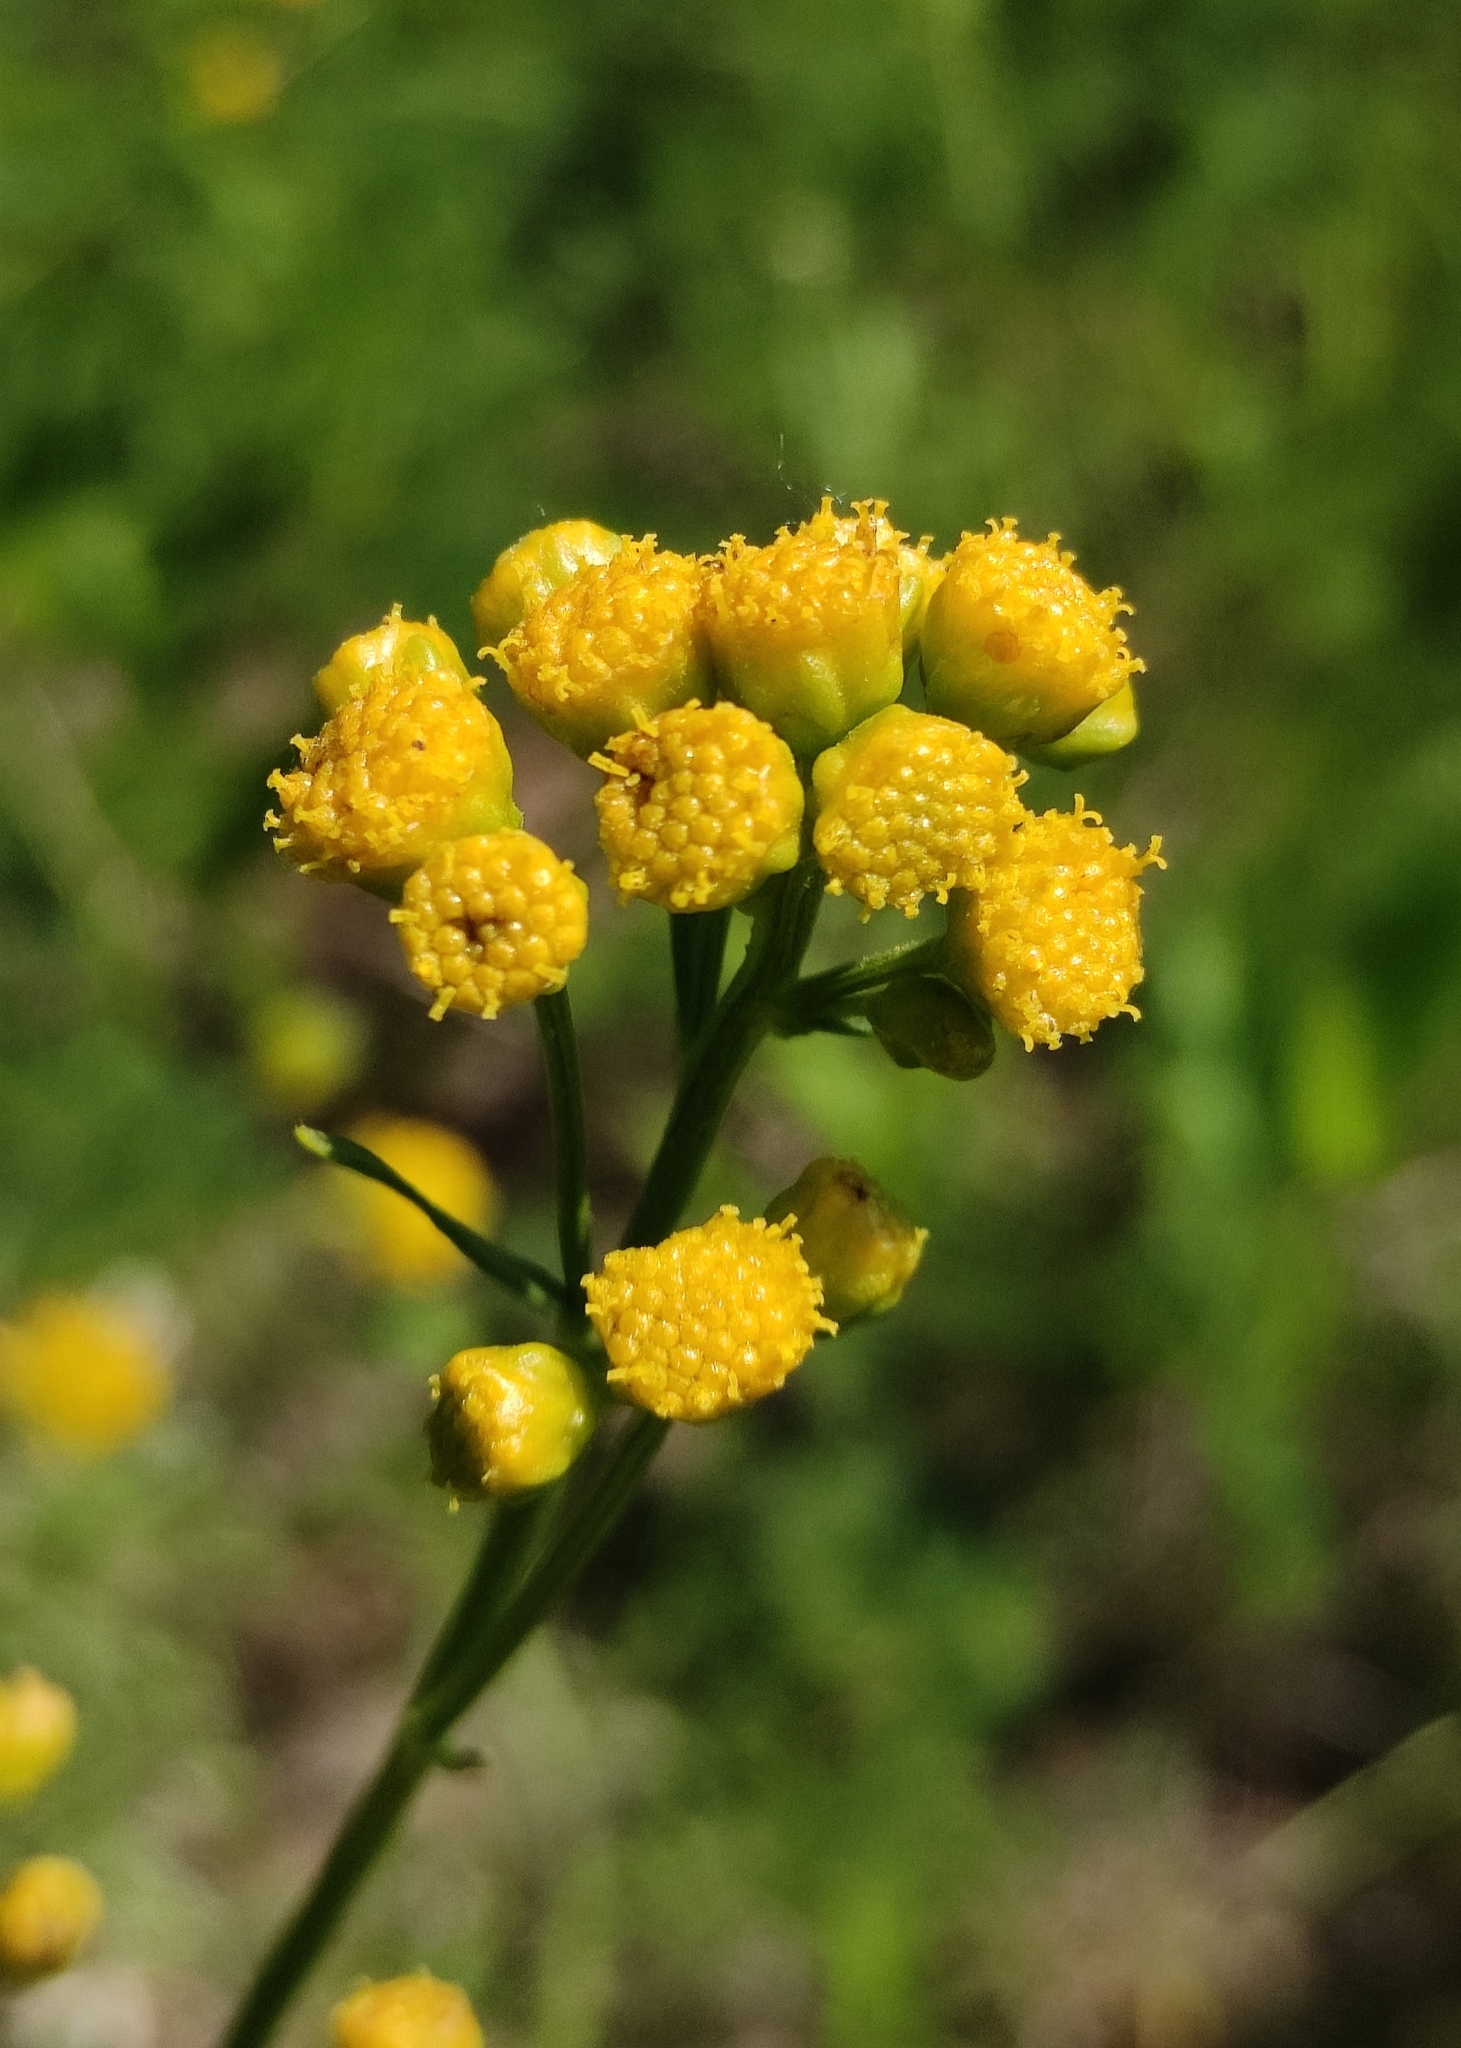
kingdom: Plantae
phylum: Tracheophyta
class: Magnoliopsida
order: Asterales
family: Asteraceae
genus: Filifolium
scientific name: Filifolium sibiricum
